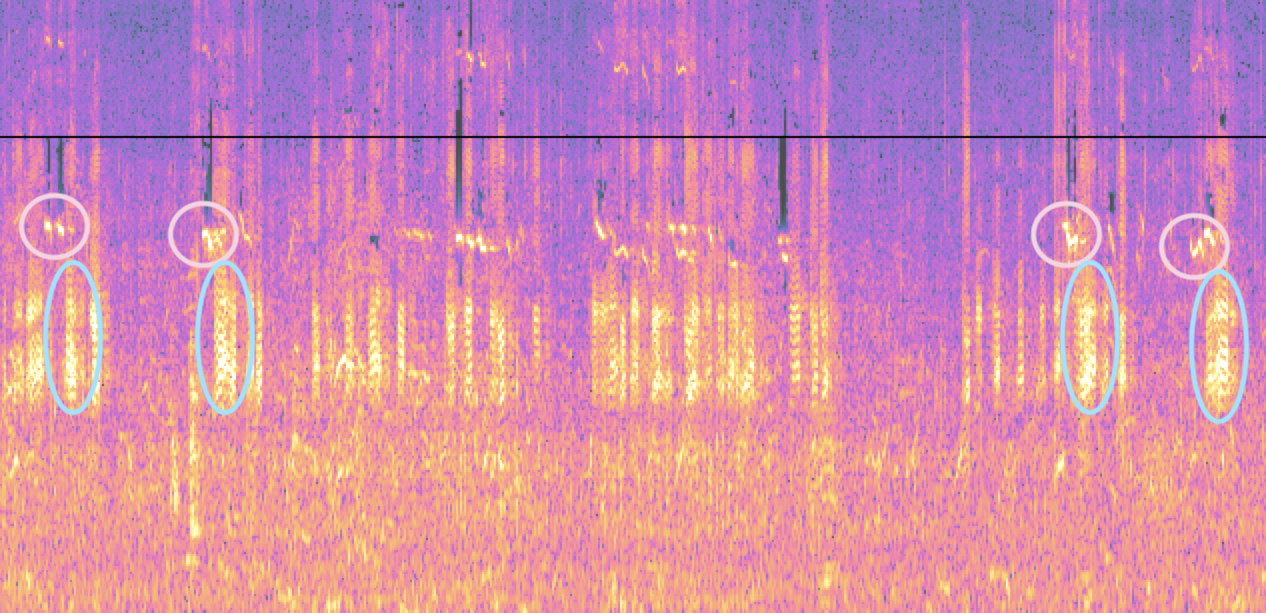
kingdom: Animalia
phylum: Chordata
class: Aves
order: Anseriformes
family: Anatidae
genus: Mareca
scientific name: Mareca strepera
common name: Gadwall
